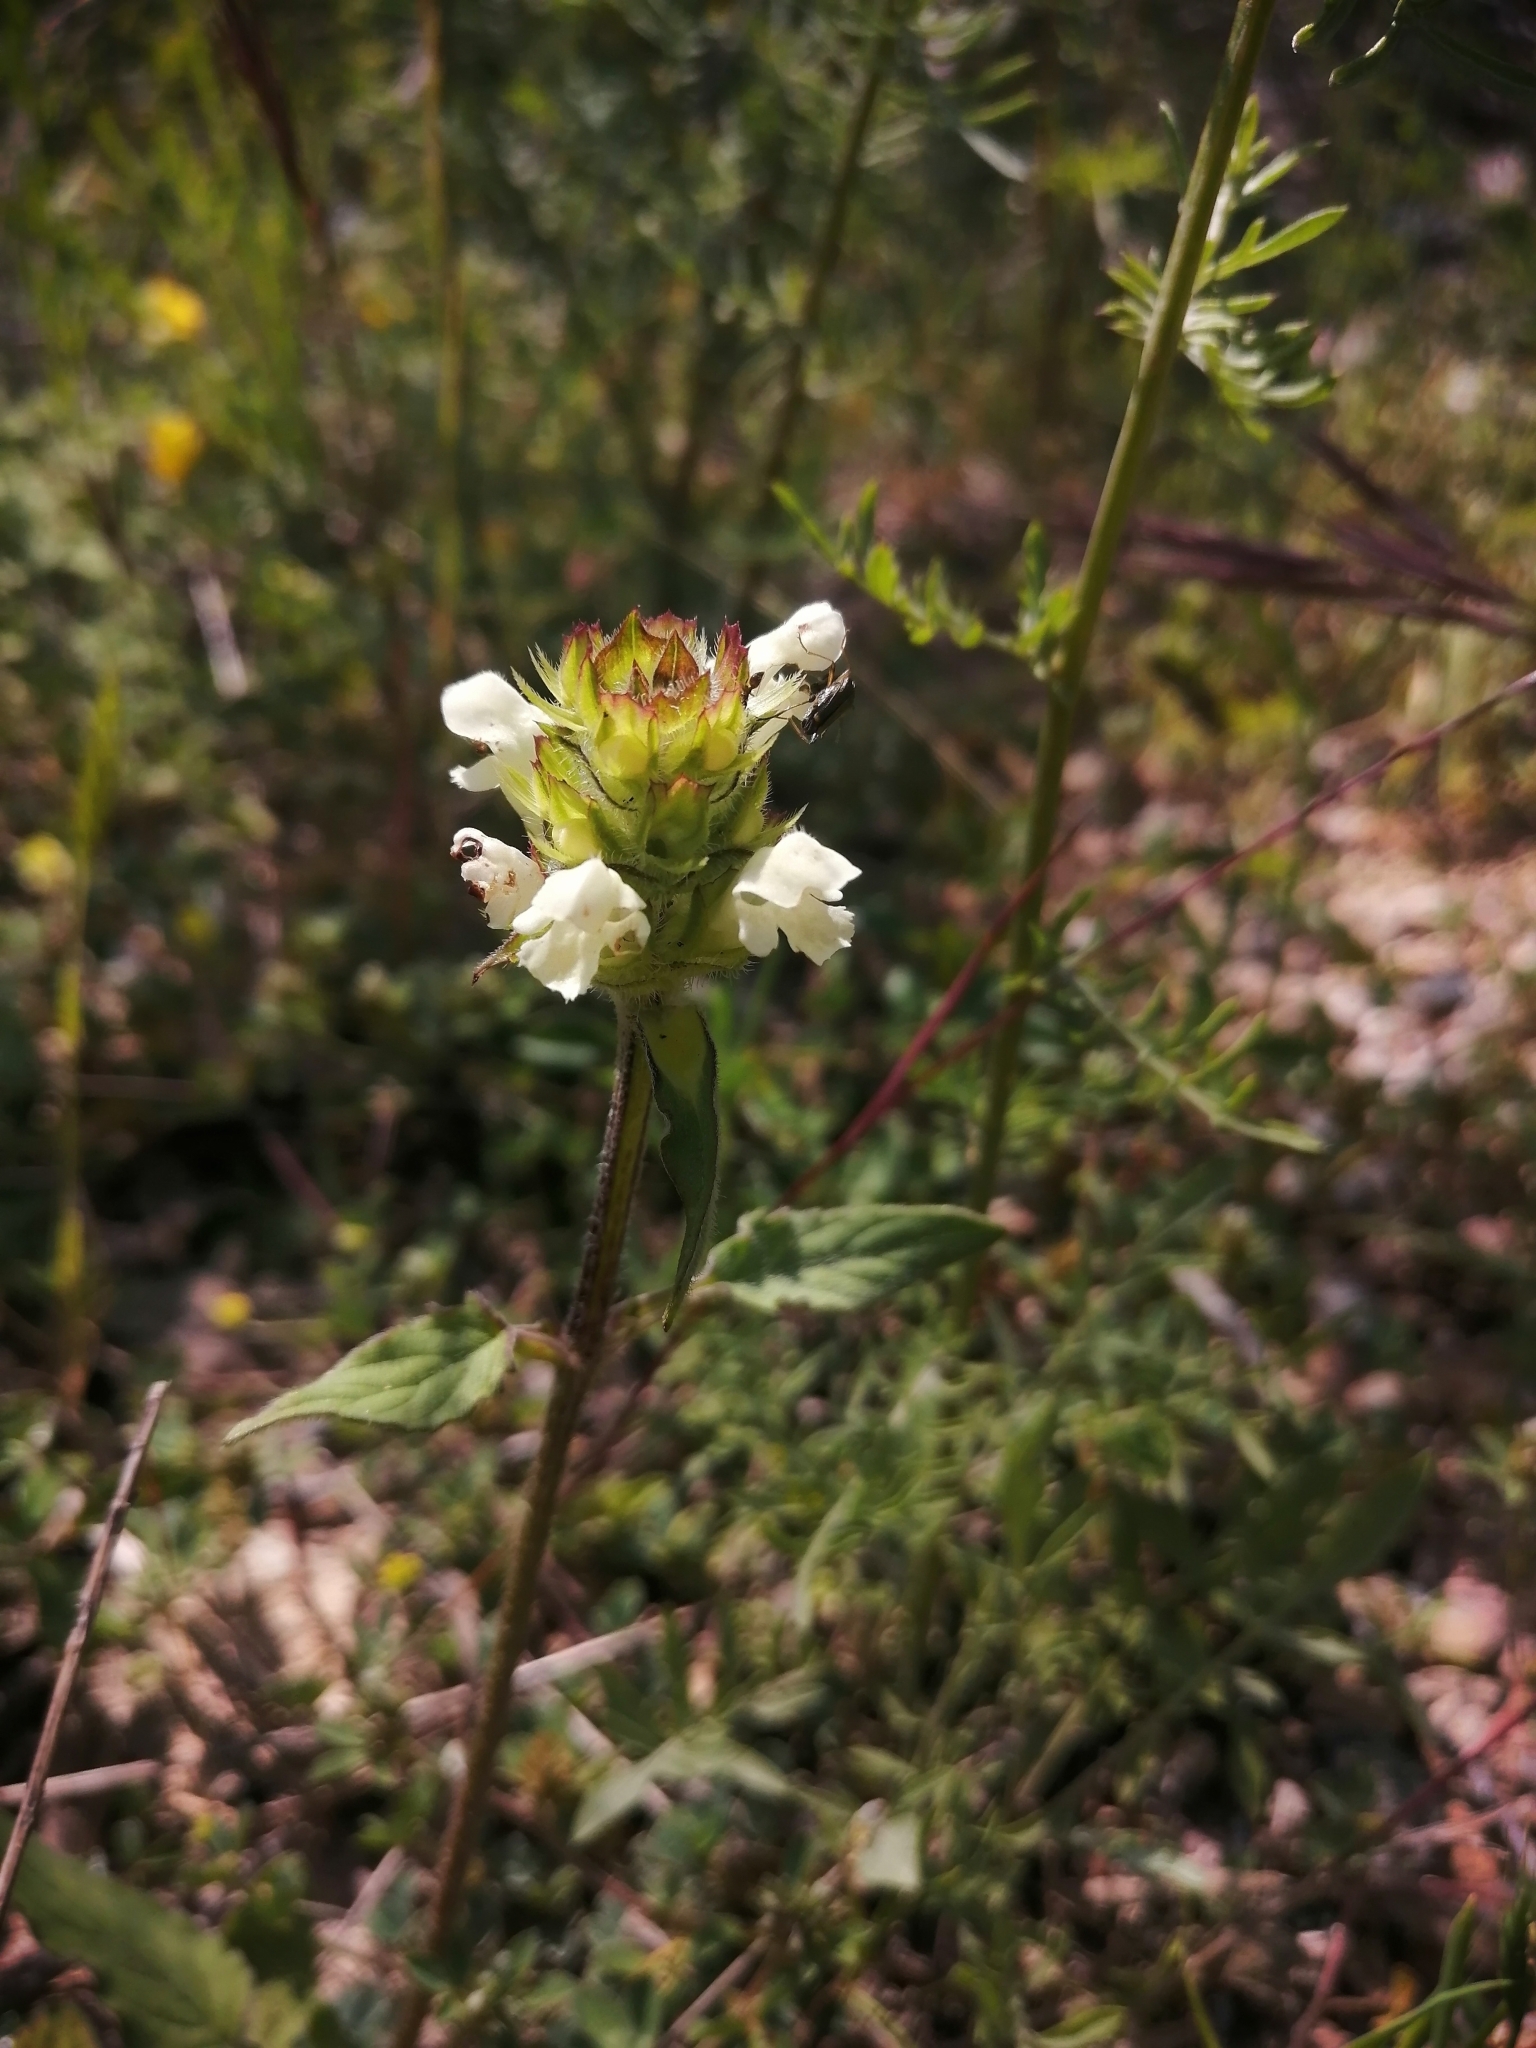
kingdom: Plantae
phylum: Tracheophyta
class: Magnoliopsida
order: Lamiales
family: Lamiaceae
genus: Prunella
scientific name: Prunella laciniata
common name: Cut-leaved selfheal
